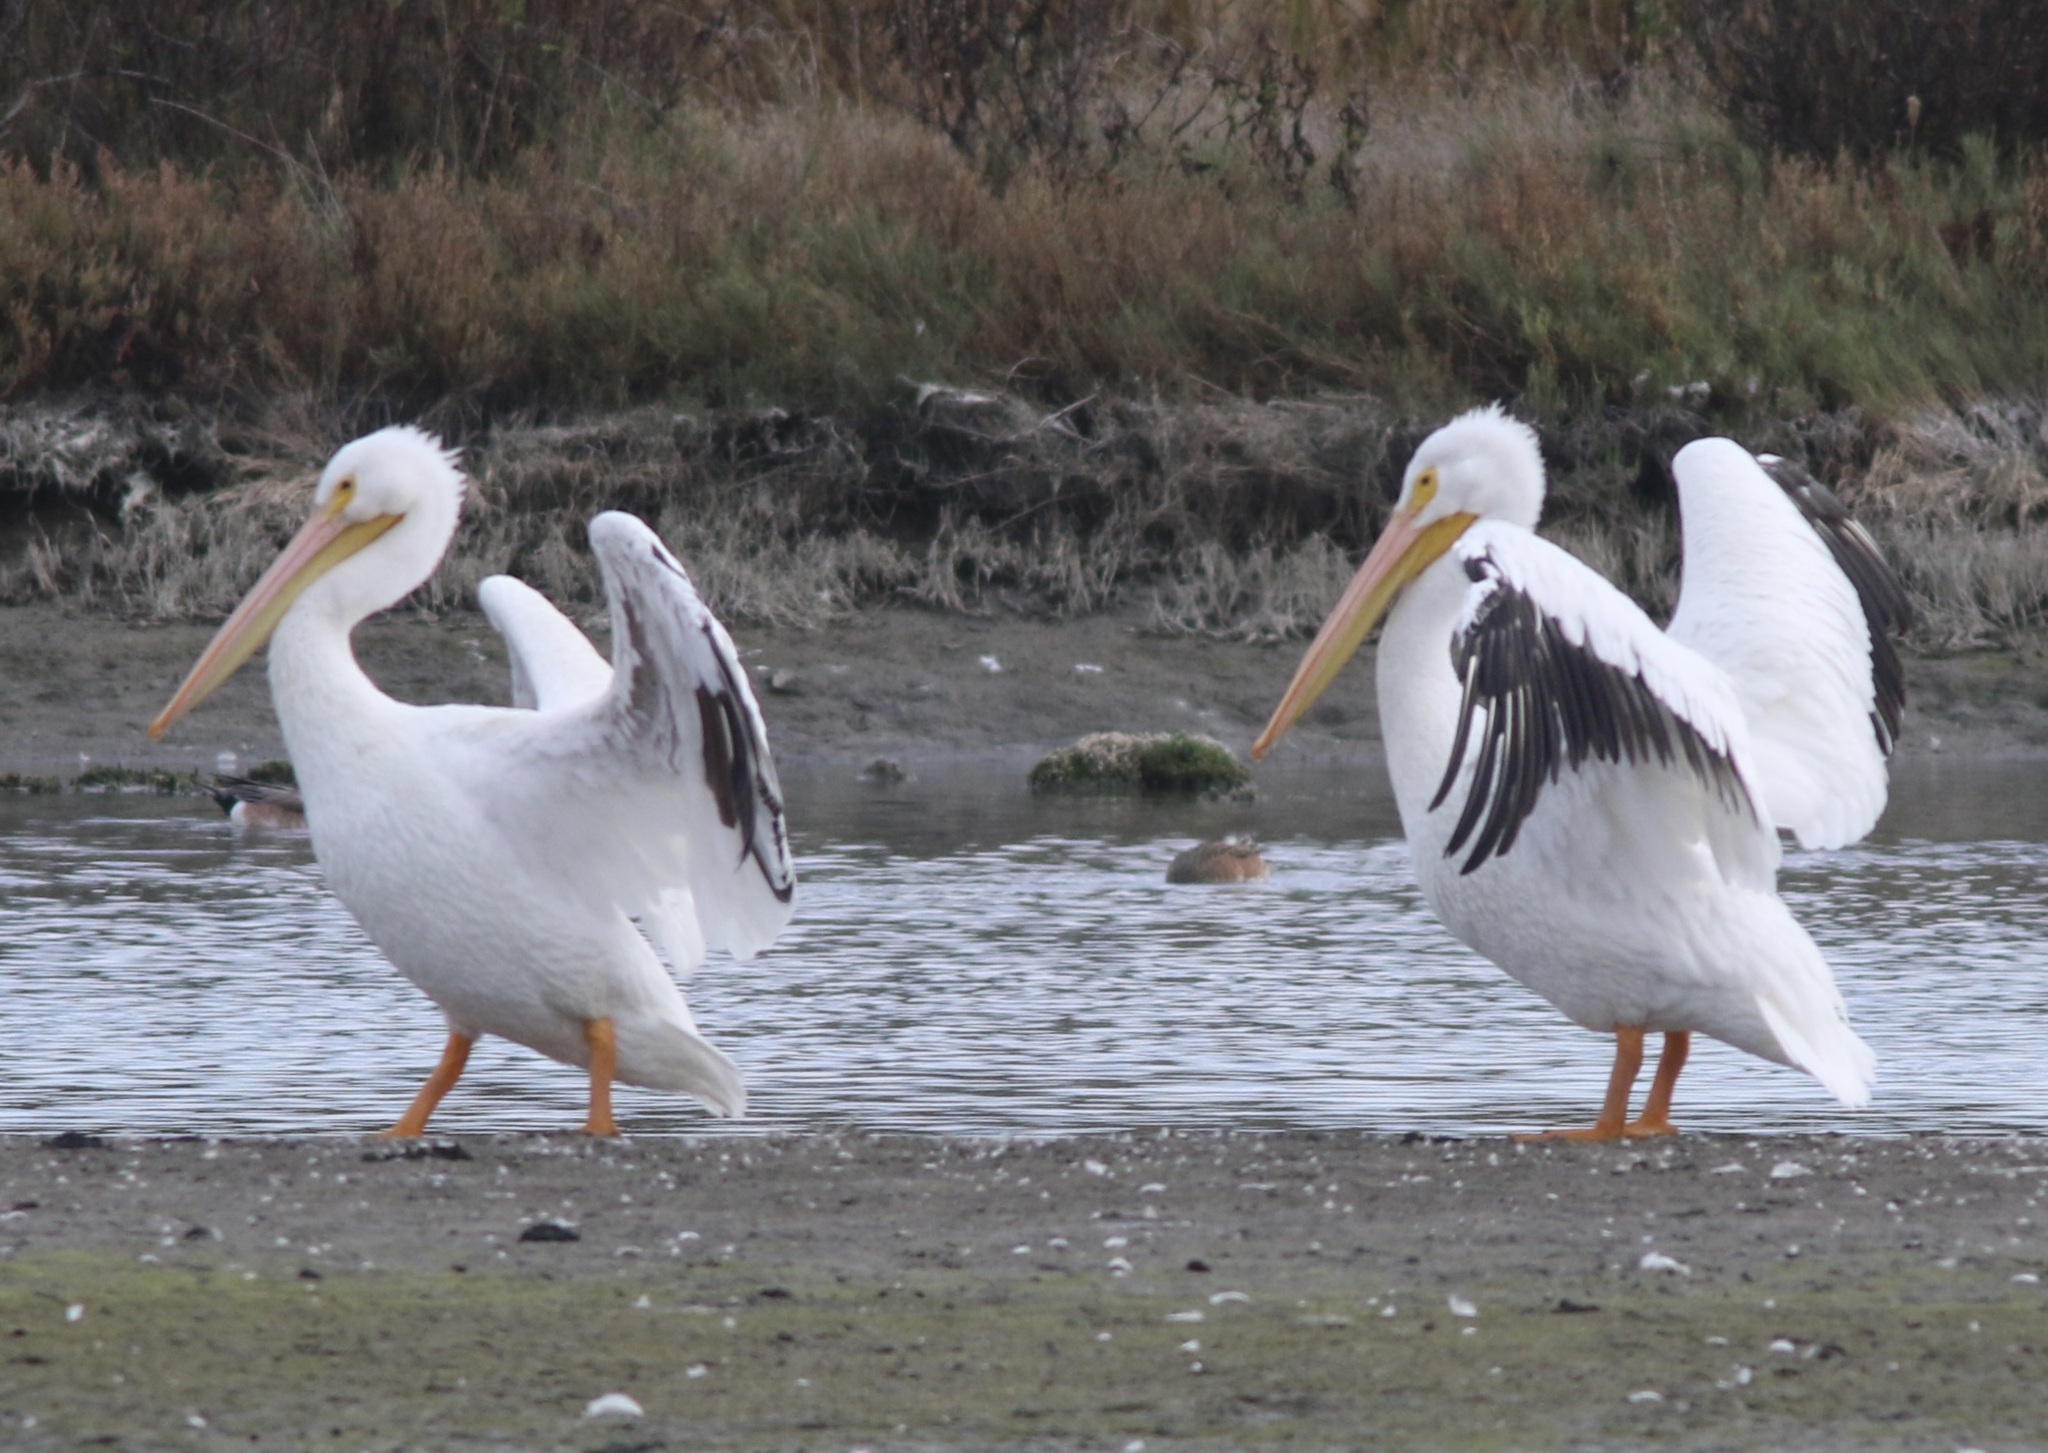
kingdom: Animalia
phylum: Chordata
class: Aves
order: Pelecaniformes
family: Pelecanidae
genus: Pelecanus
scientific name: Pelecanus erythrorhynchos
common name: American white pelican
